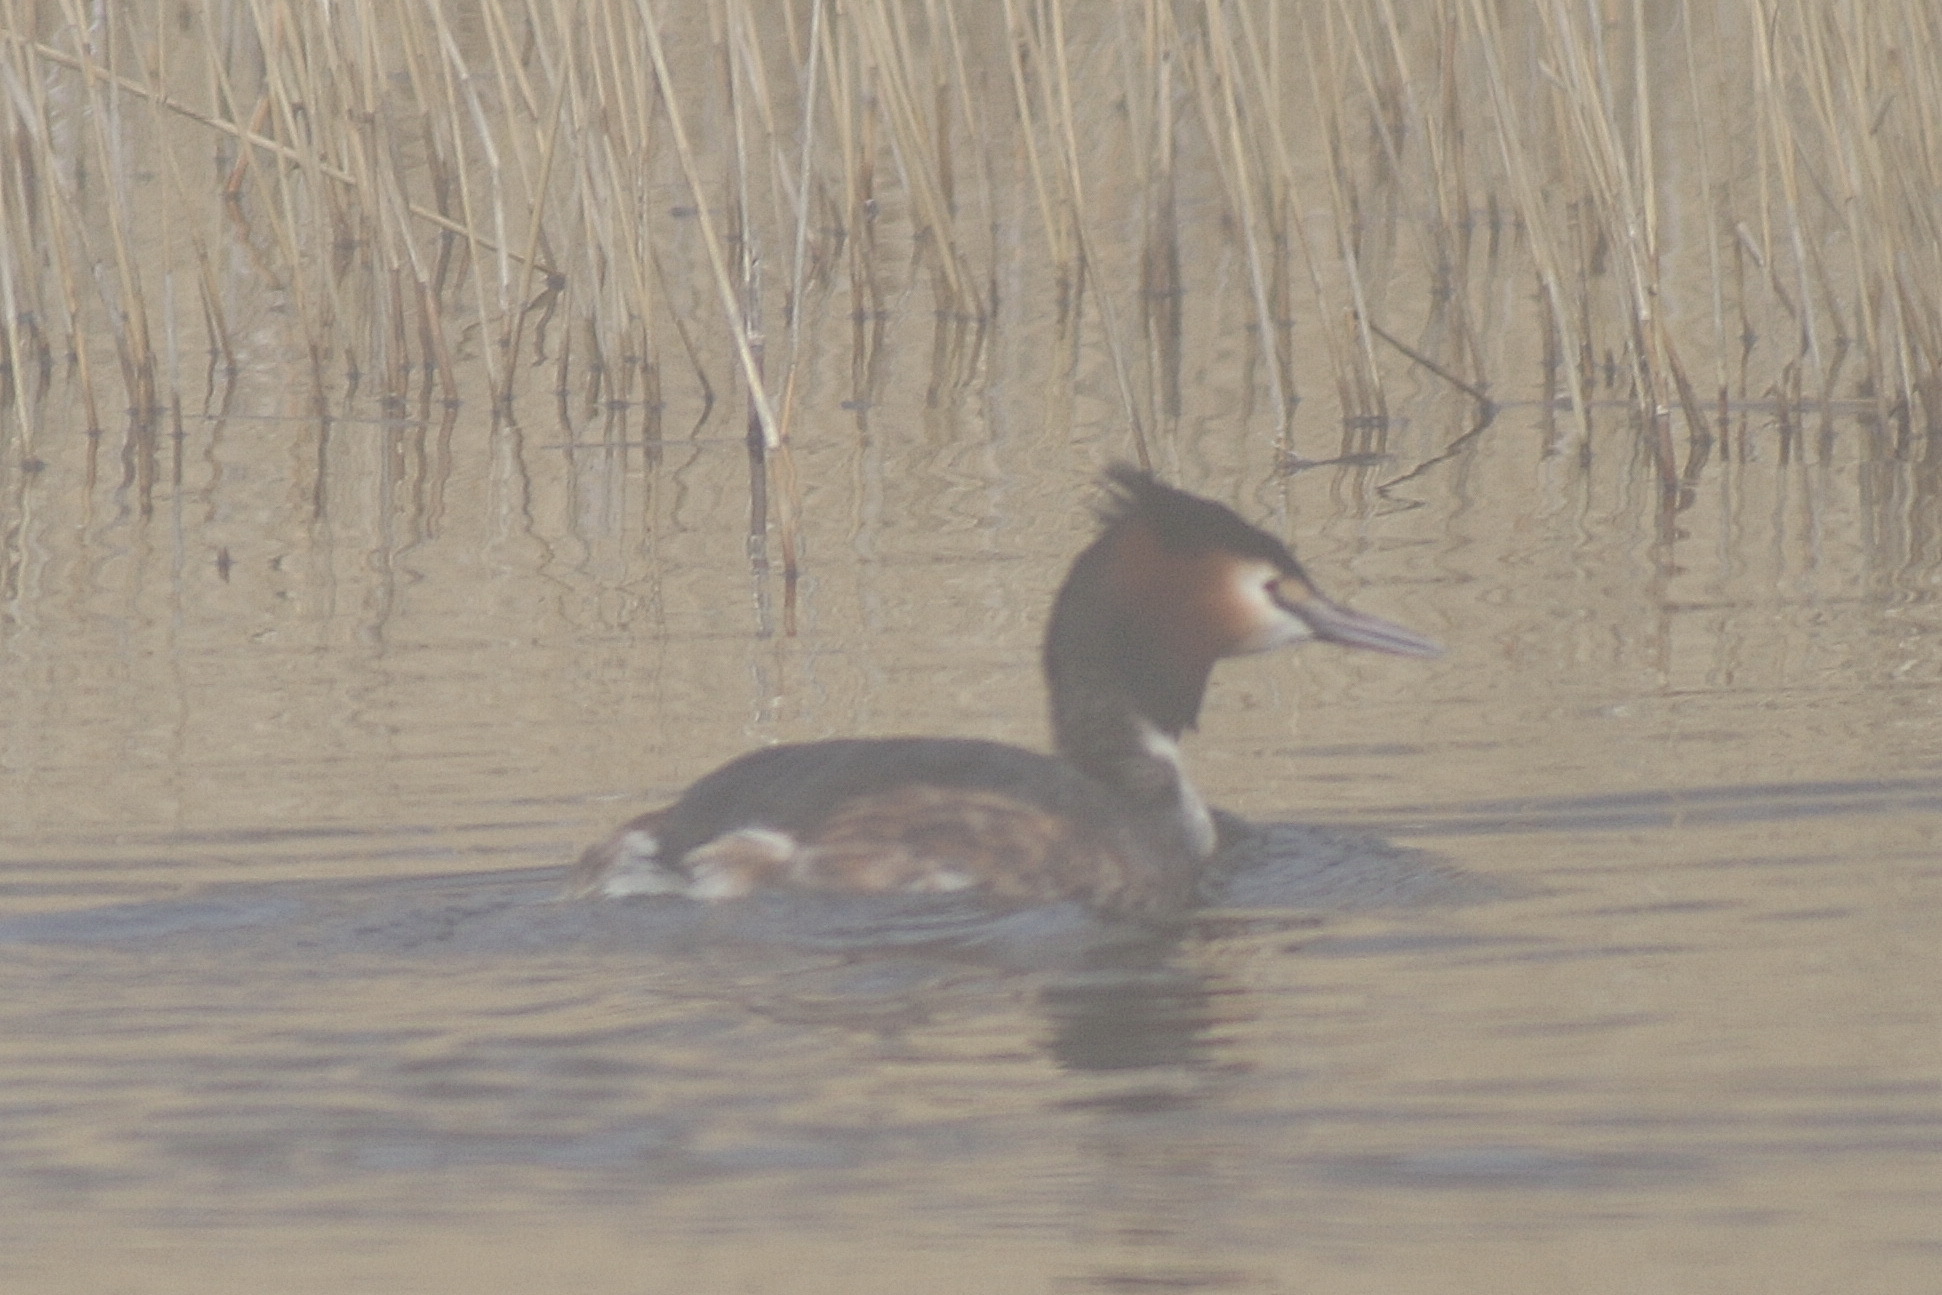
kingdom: Animalia
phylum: Chordata
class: Aves
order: Podicipediformes
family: Podicipedidae
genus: Podiceps
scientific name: Podiceps cristatus
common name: Great crested grebe
